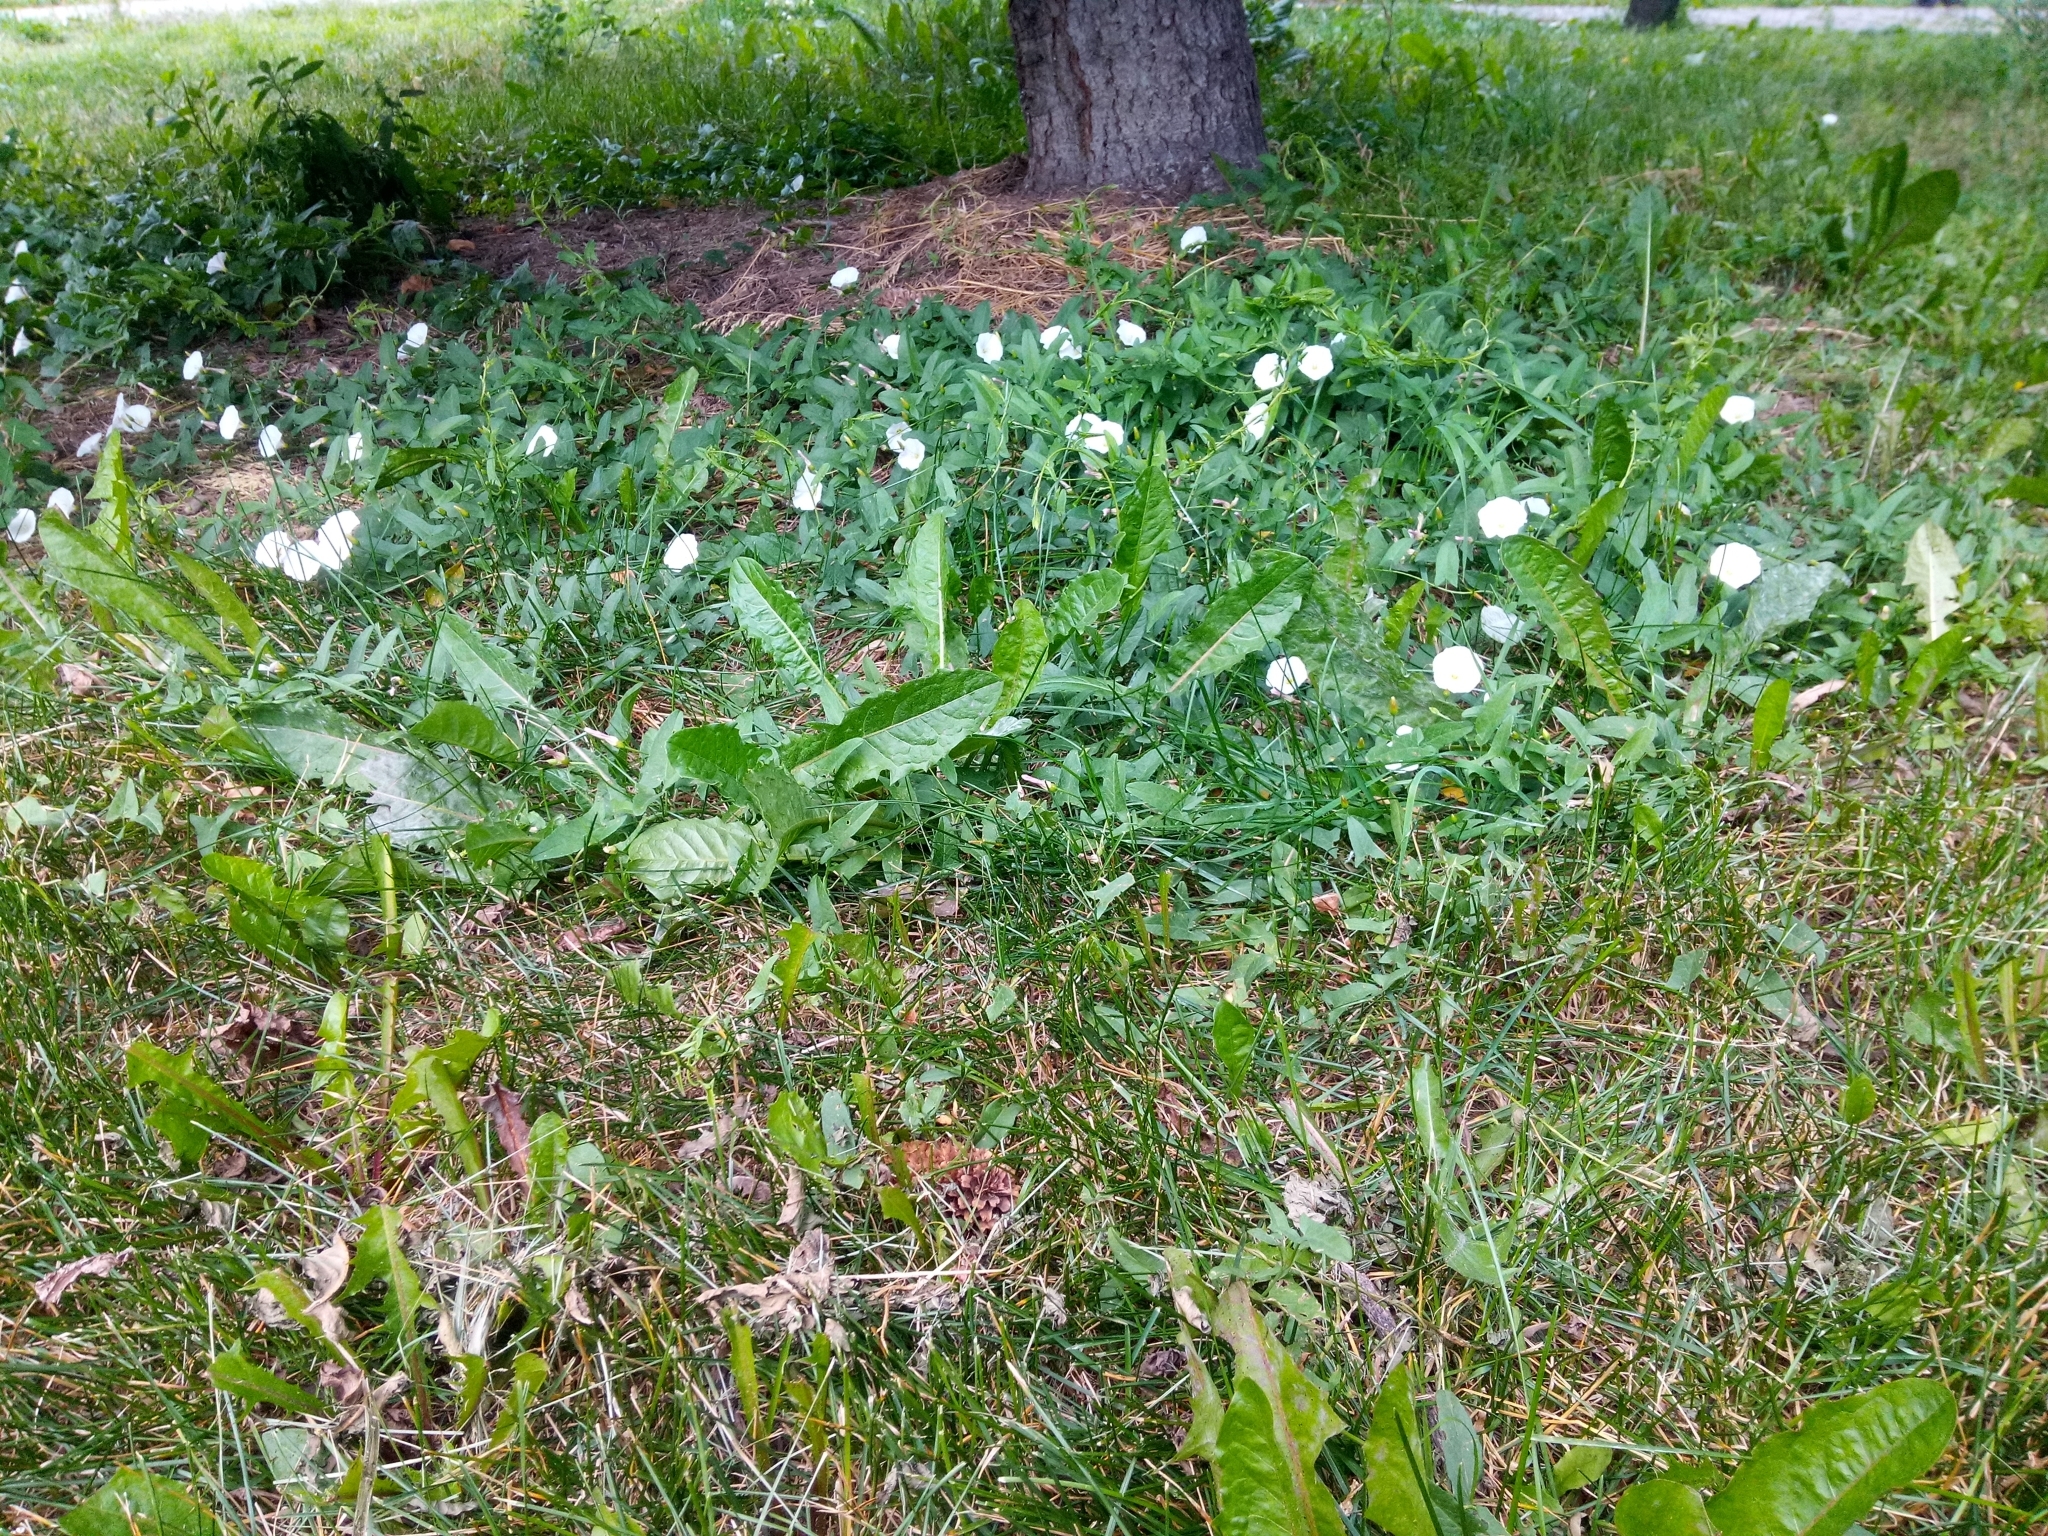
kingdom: Plantae
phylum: Tracheophyta
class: Magnoliopsida
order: Solanales
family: Convolvulaceae
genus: Convolvulus
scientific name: Convolvulus arvensis
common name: Field bindweed
